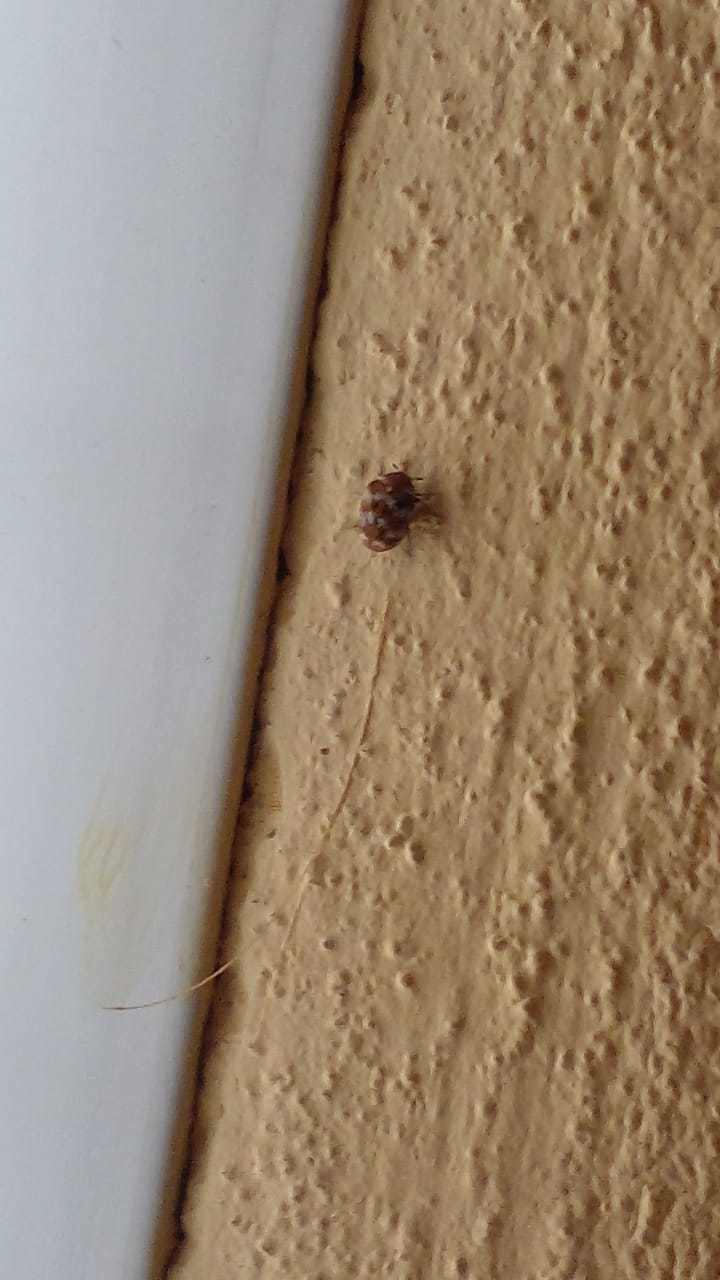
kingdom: Animalia
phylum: Arthropoda
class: Insecta
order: Coleoptera
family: Dermestidae
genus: Anthrenus
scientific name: Anthrenus verbasci
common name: Varied carpet beetle
